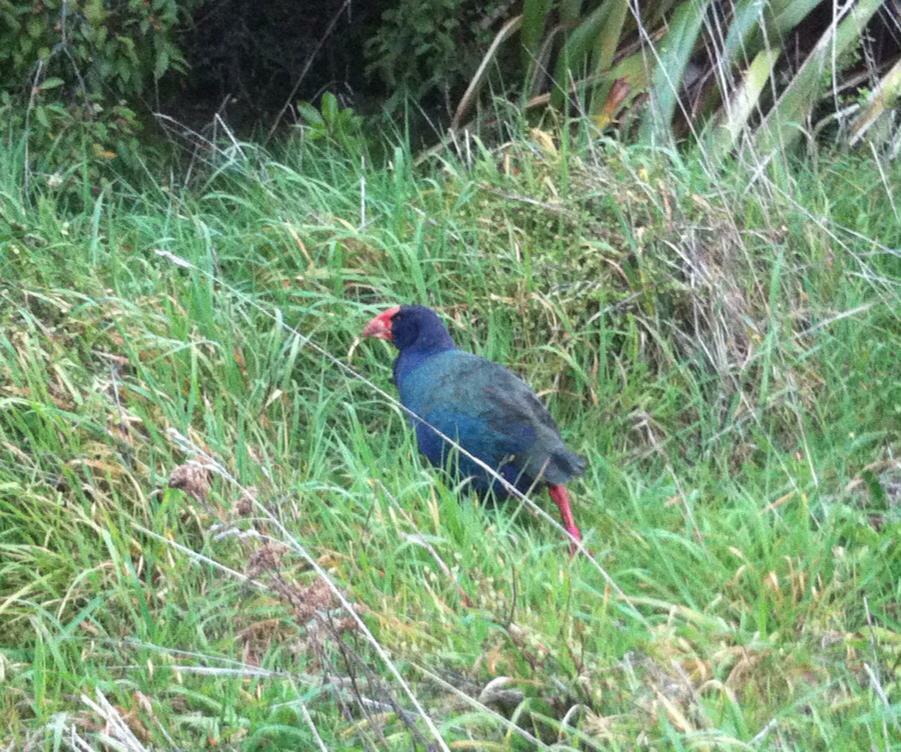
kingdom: Animalia
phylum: Chordata
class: Aves
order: Gruiformes
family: Rallidae
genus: Porphyrio
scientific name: Porphyrio hochstetteri
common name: South island takahe
